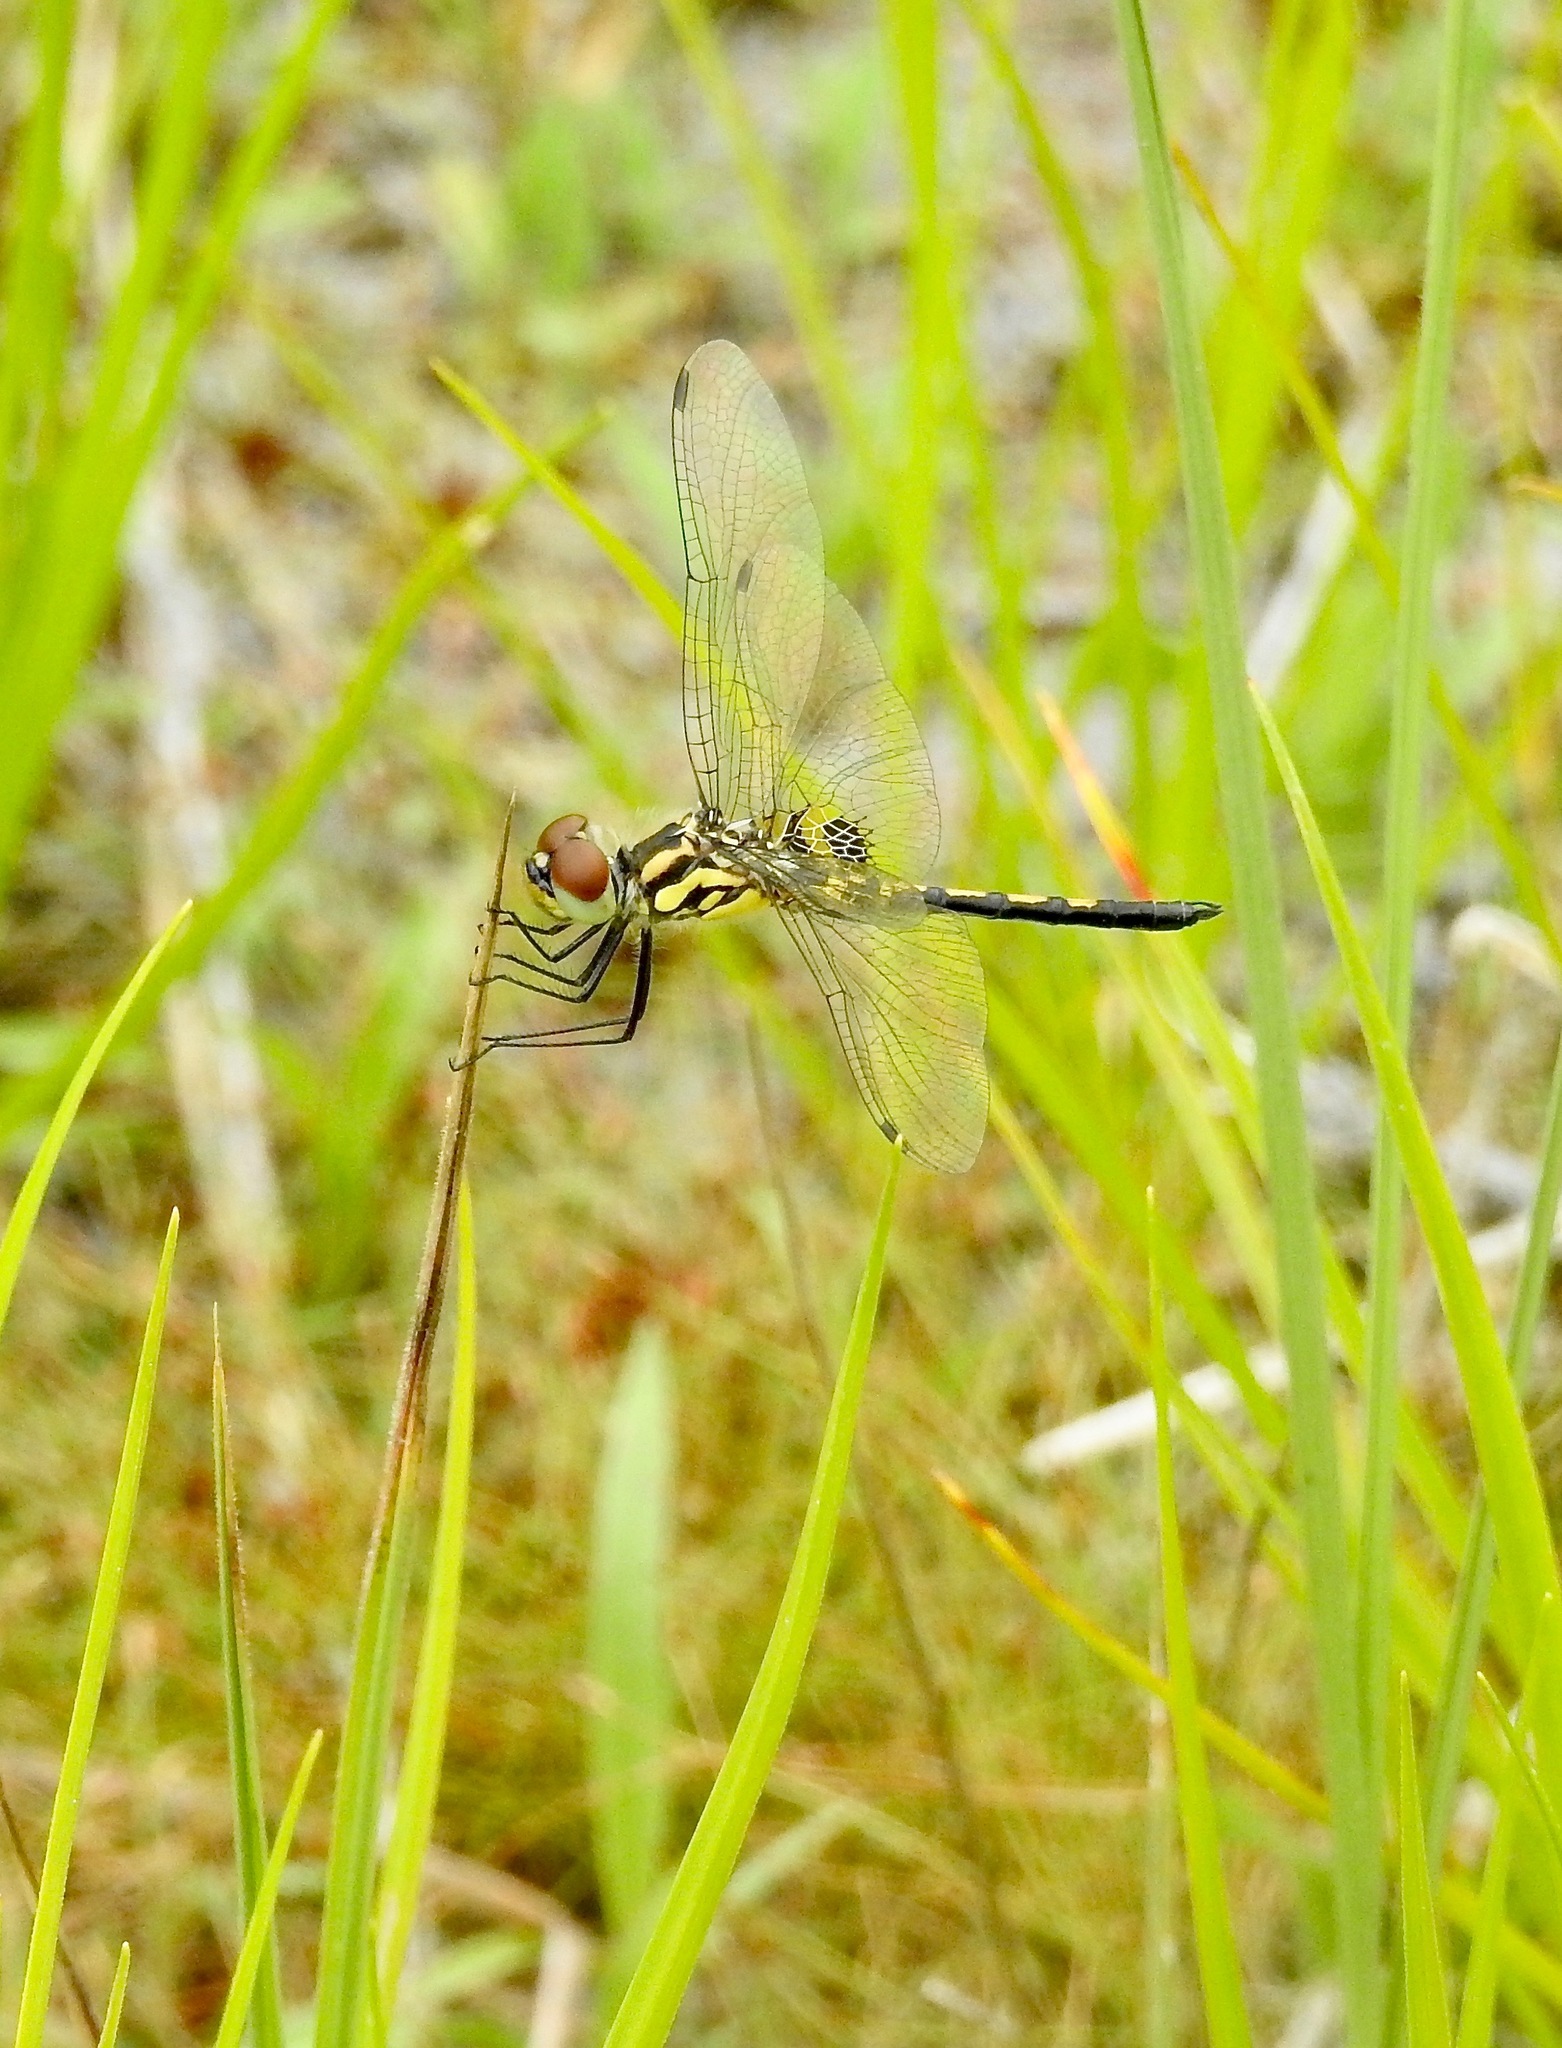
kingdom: Animalia
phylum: Arthropoda
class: Insecta
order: Odonata
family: Libellulidae
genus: Celithemis
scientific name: Celithemis ornata
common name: Ornate pennant
